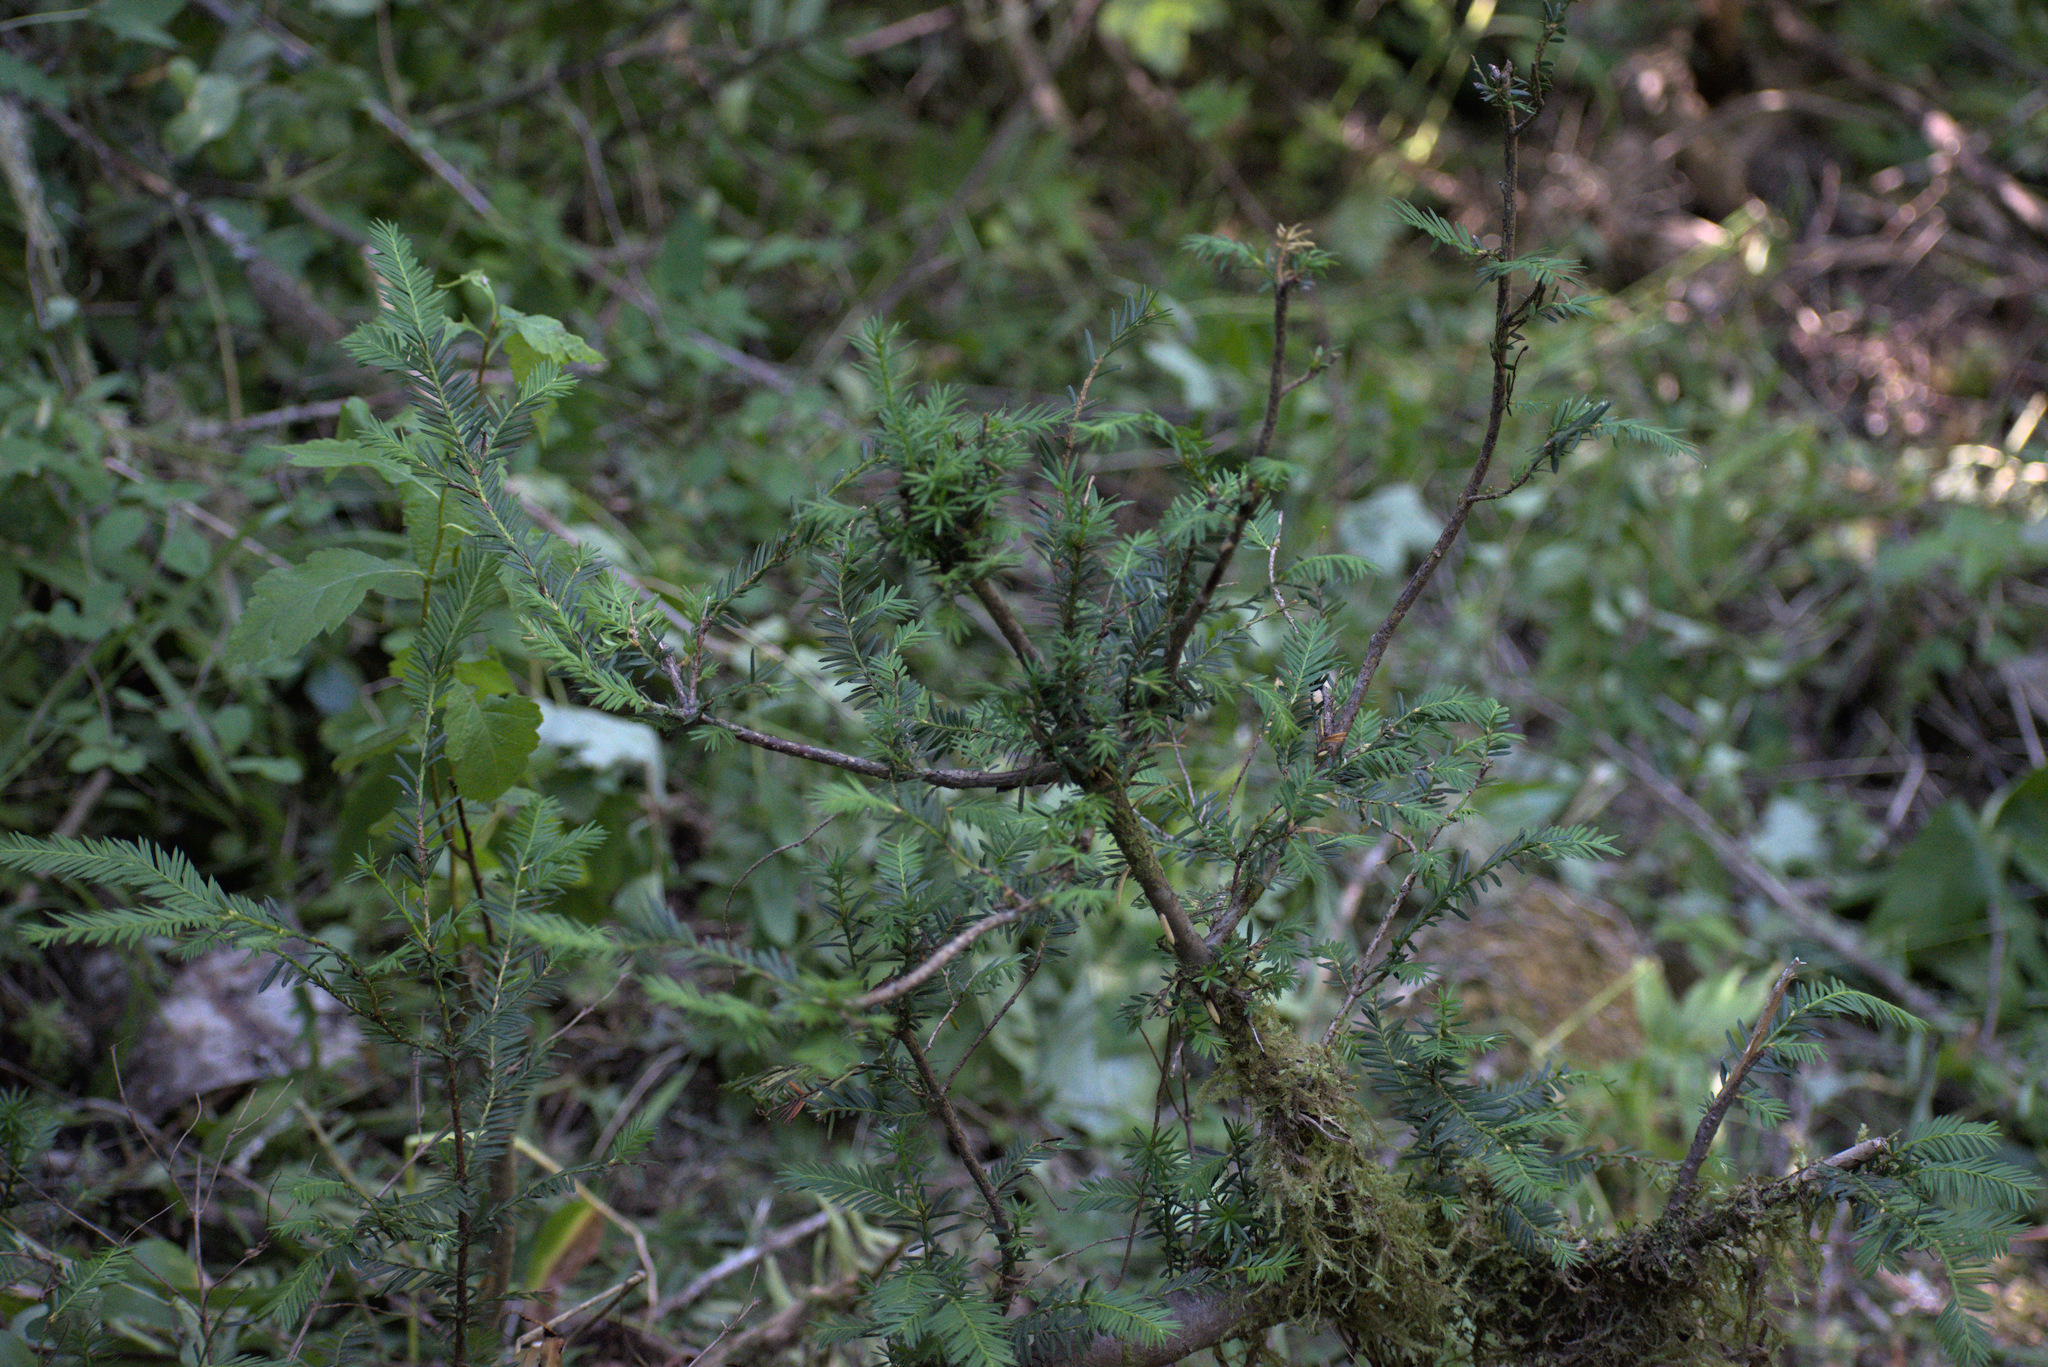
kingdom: Plantae
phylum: Tracheophyta
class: Pinopsida
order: Pinales
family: Taxaceae
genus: Taxus
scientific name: Taxus brevifolia
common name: Pacific yew
